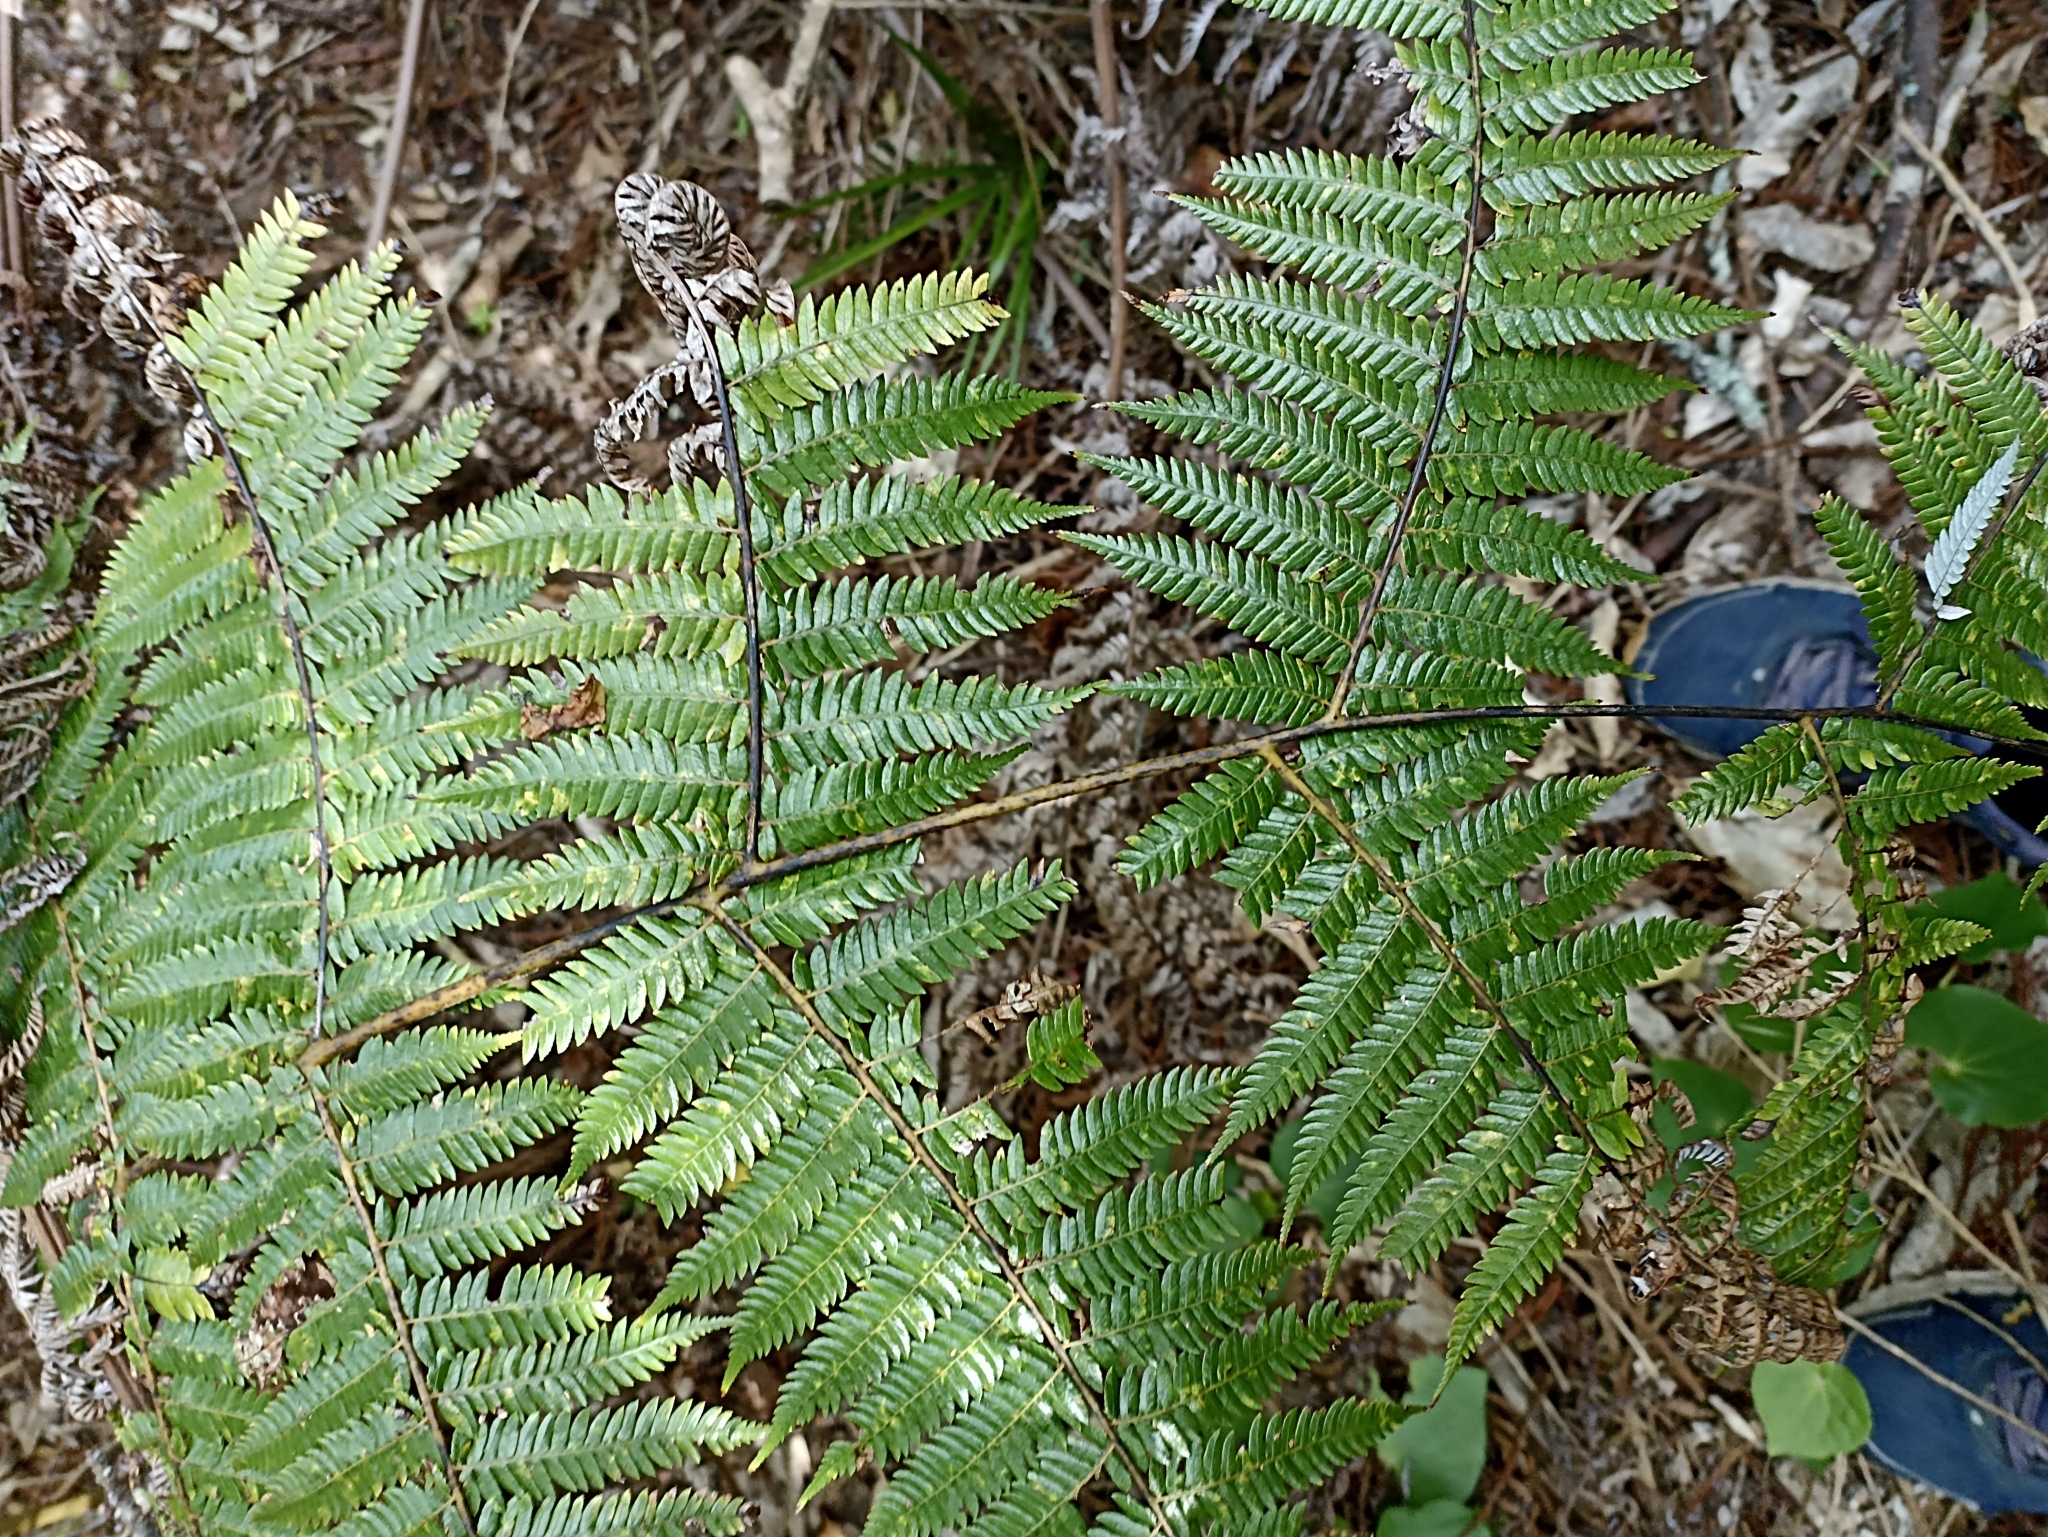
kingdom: Plantae
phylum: Tracheophyta
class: Polypodiopsida
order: Cyatheales
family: Cyatheaceae
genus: Alsophila
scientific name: Alsophila dealbata
